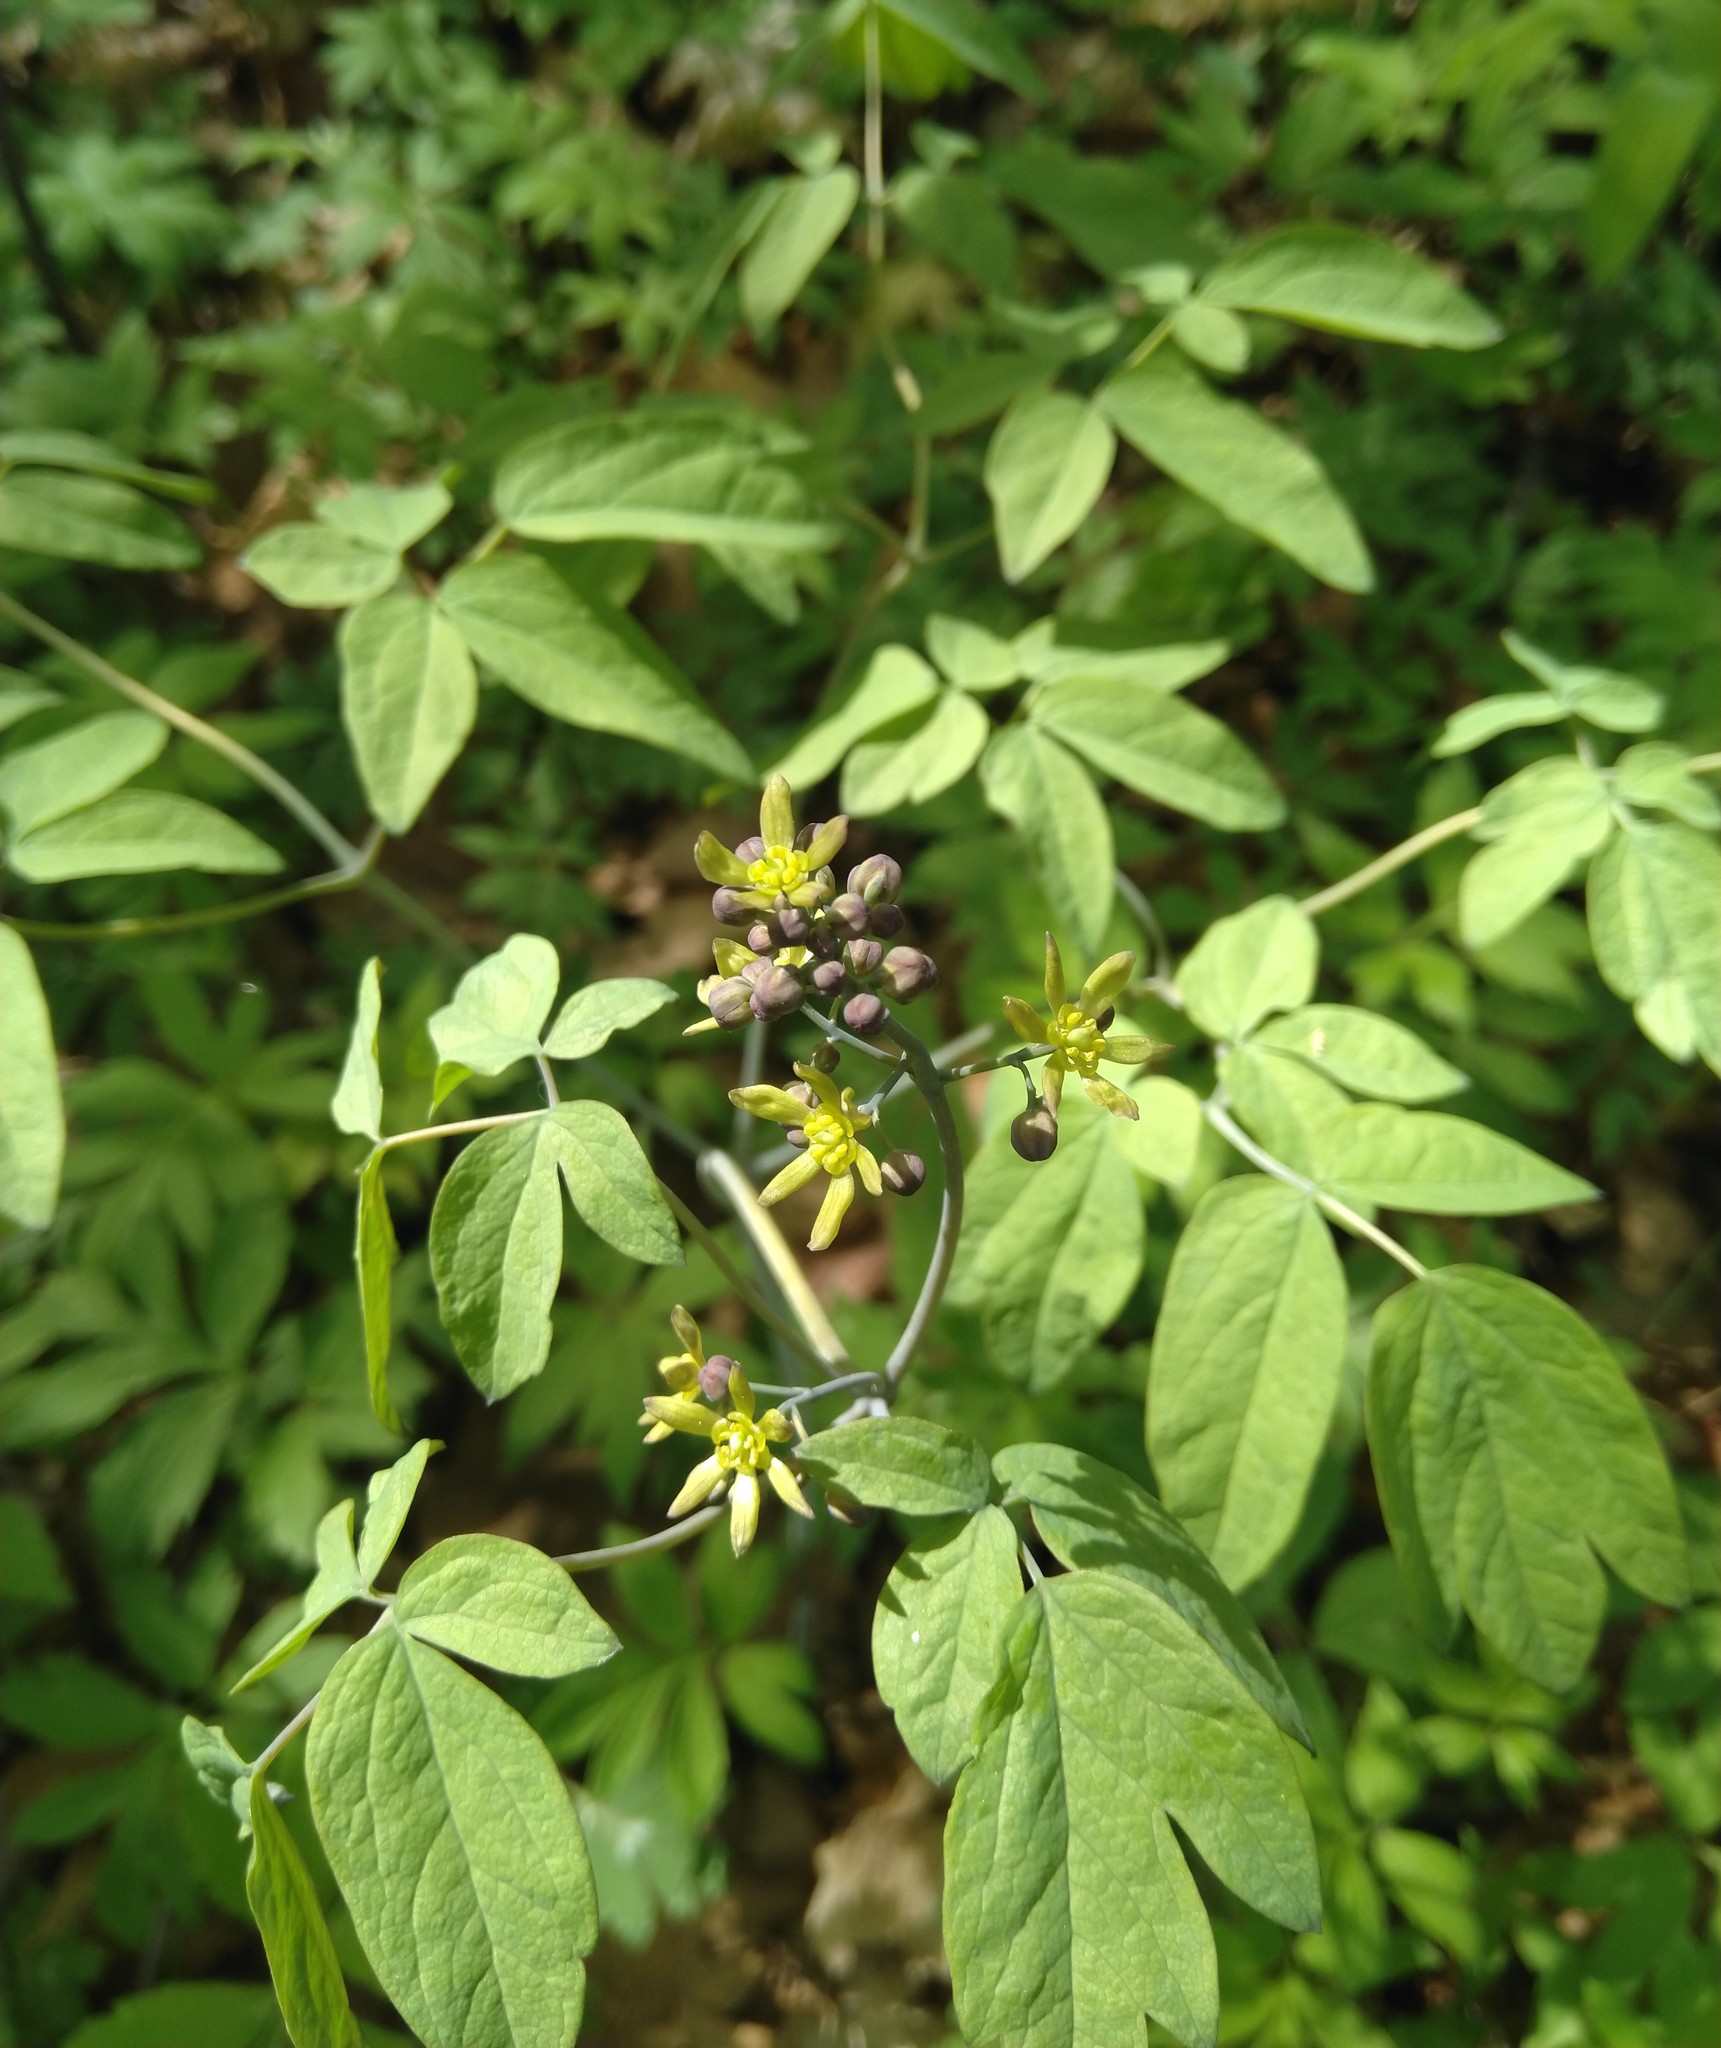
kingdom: Plantae
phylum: Tracheophyta
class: Magnoliopsida
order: Ranunculales
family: Berberidaceae
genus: Caulophyllum
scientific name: Caulophyllum thalictroides
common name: Blue cohosh
